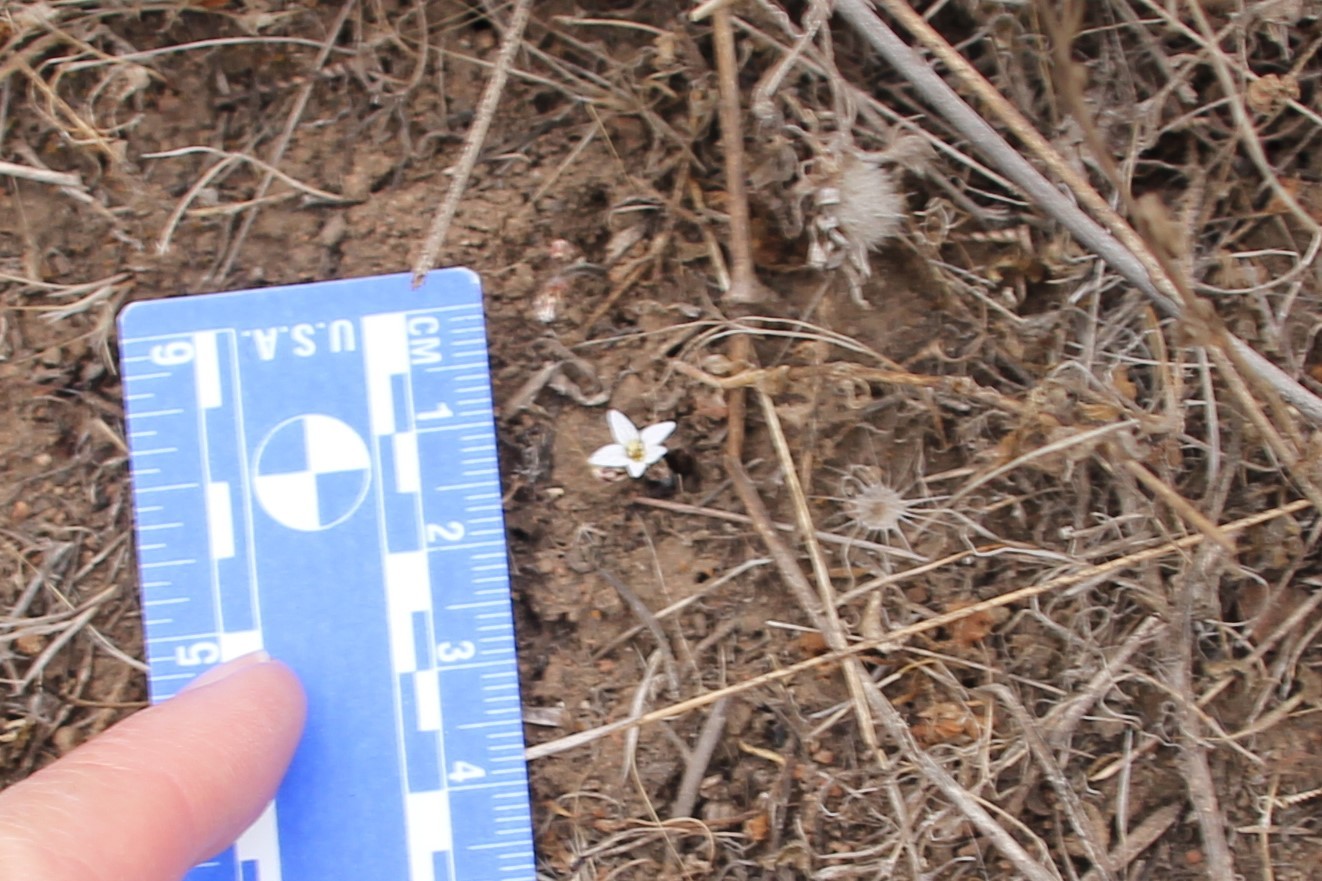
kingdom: Plantae
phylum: Tracheophyta
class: Magnoliopsida
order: Saxifragales
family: Saxifragaceae
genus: Jepsonia
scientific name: Jepsonia parryi
